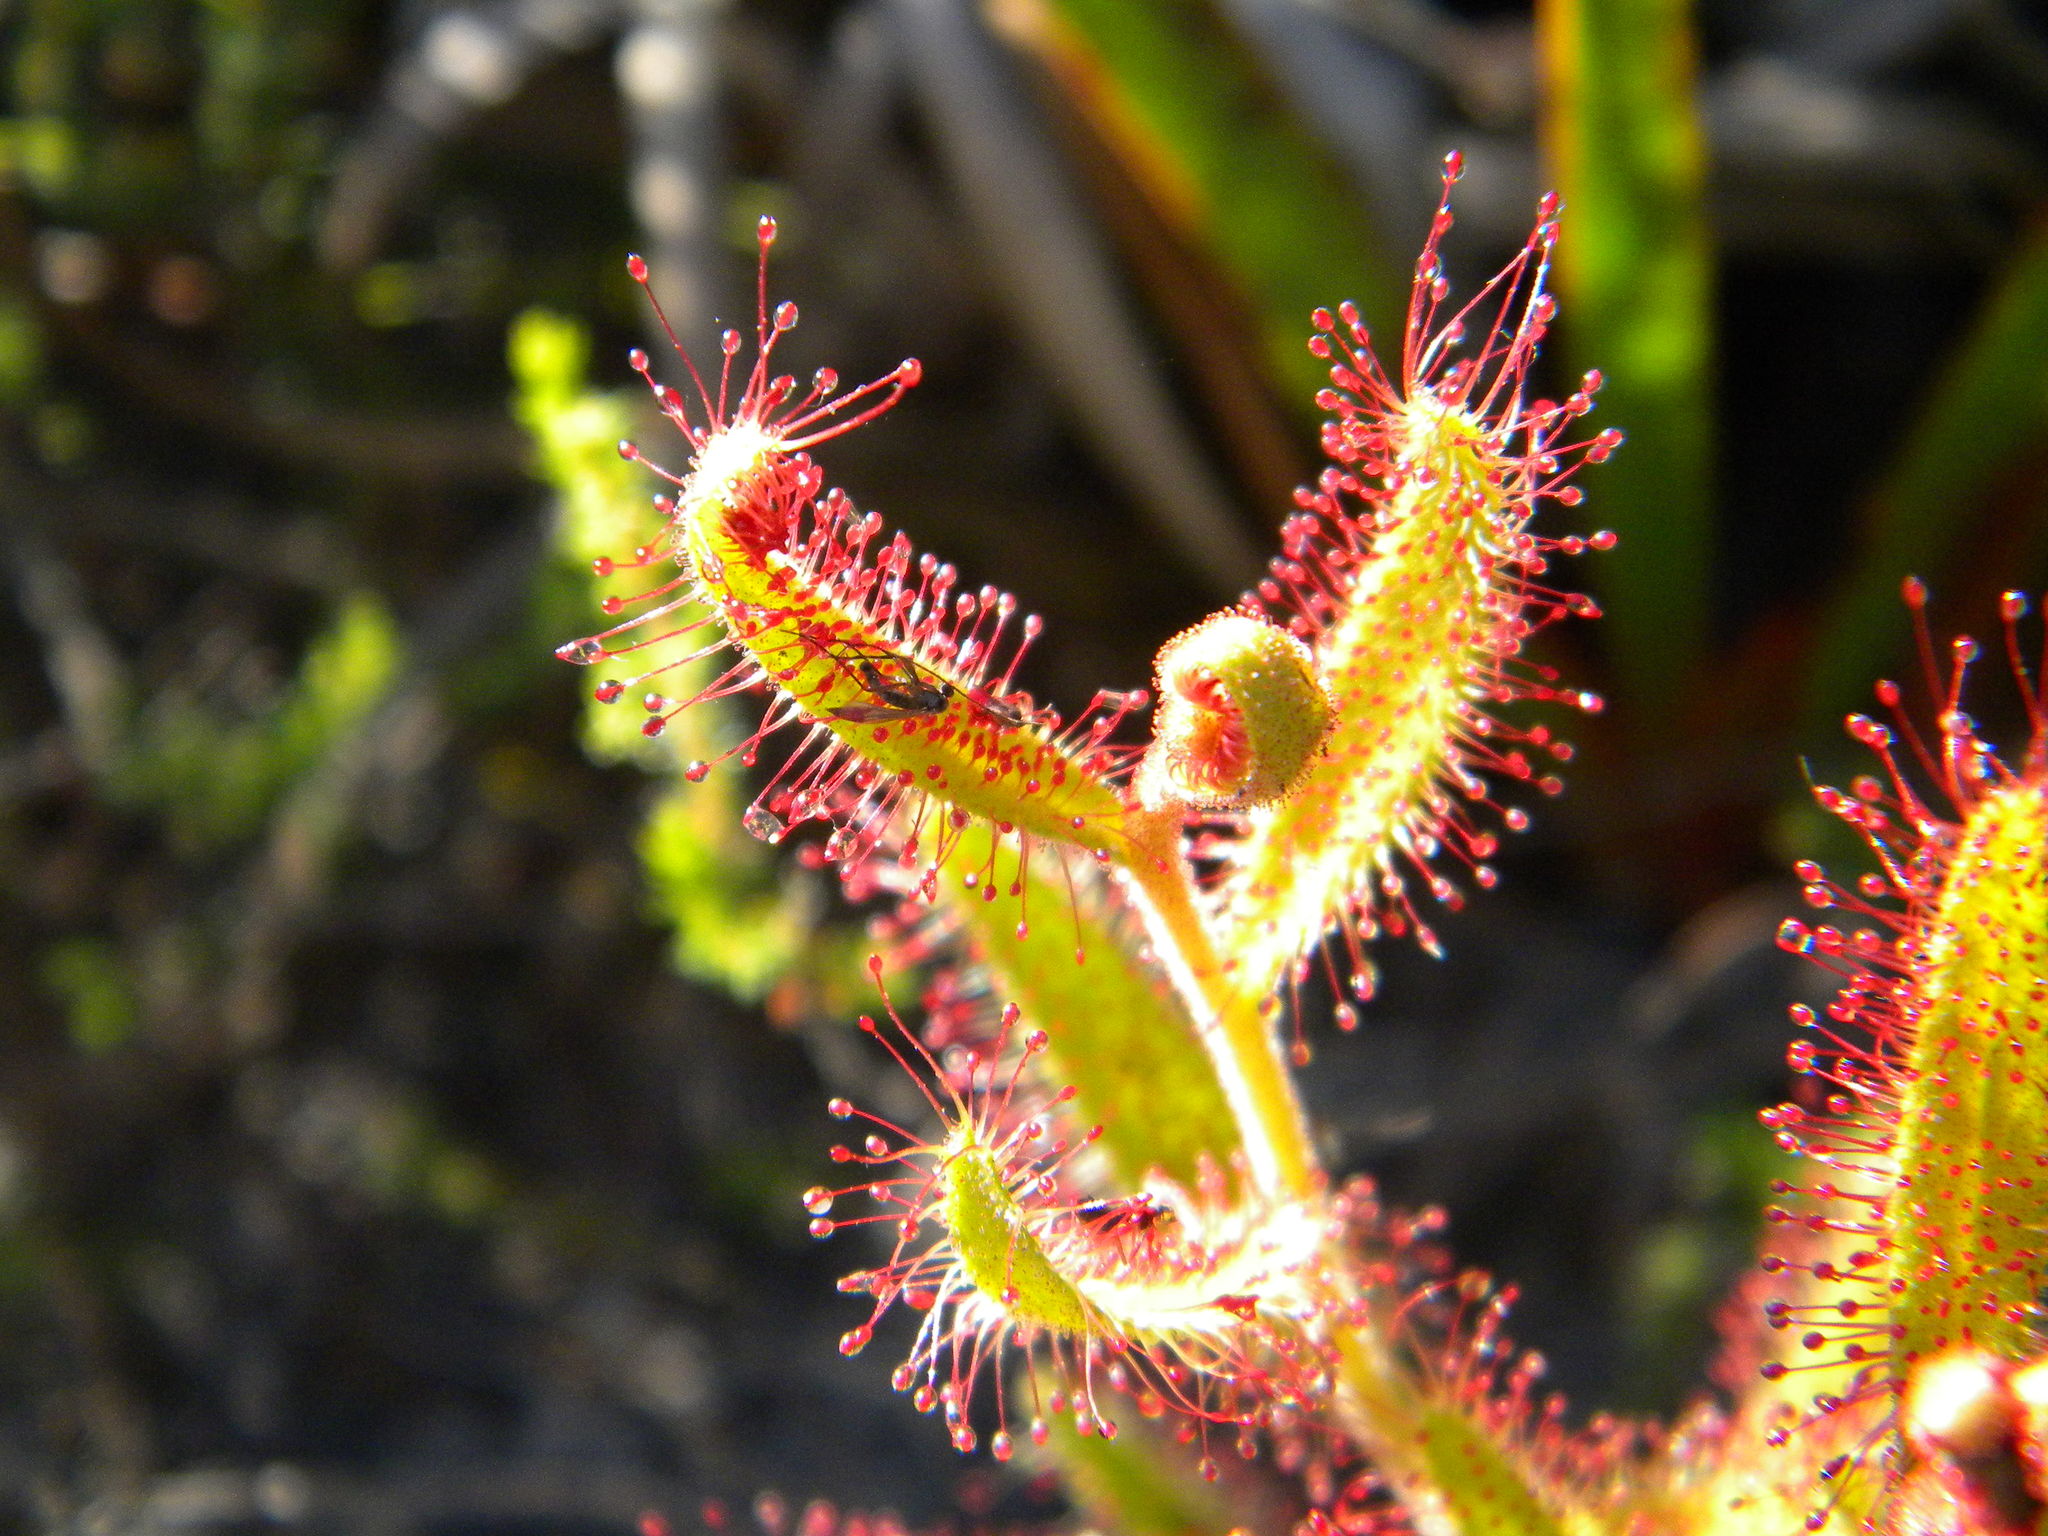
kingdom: Plantae
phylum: Tracheophyta
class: Magnoliopsida
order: Caryophyllales
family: Droseraceae
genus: Drosera
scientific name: Drosera cistiflora
